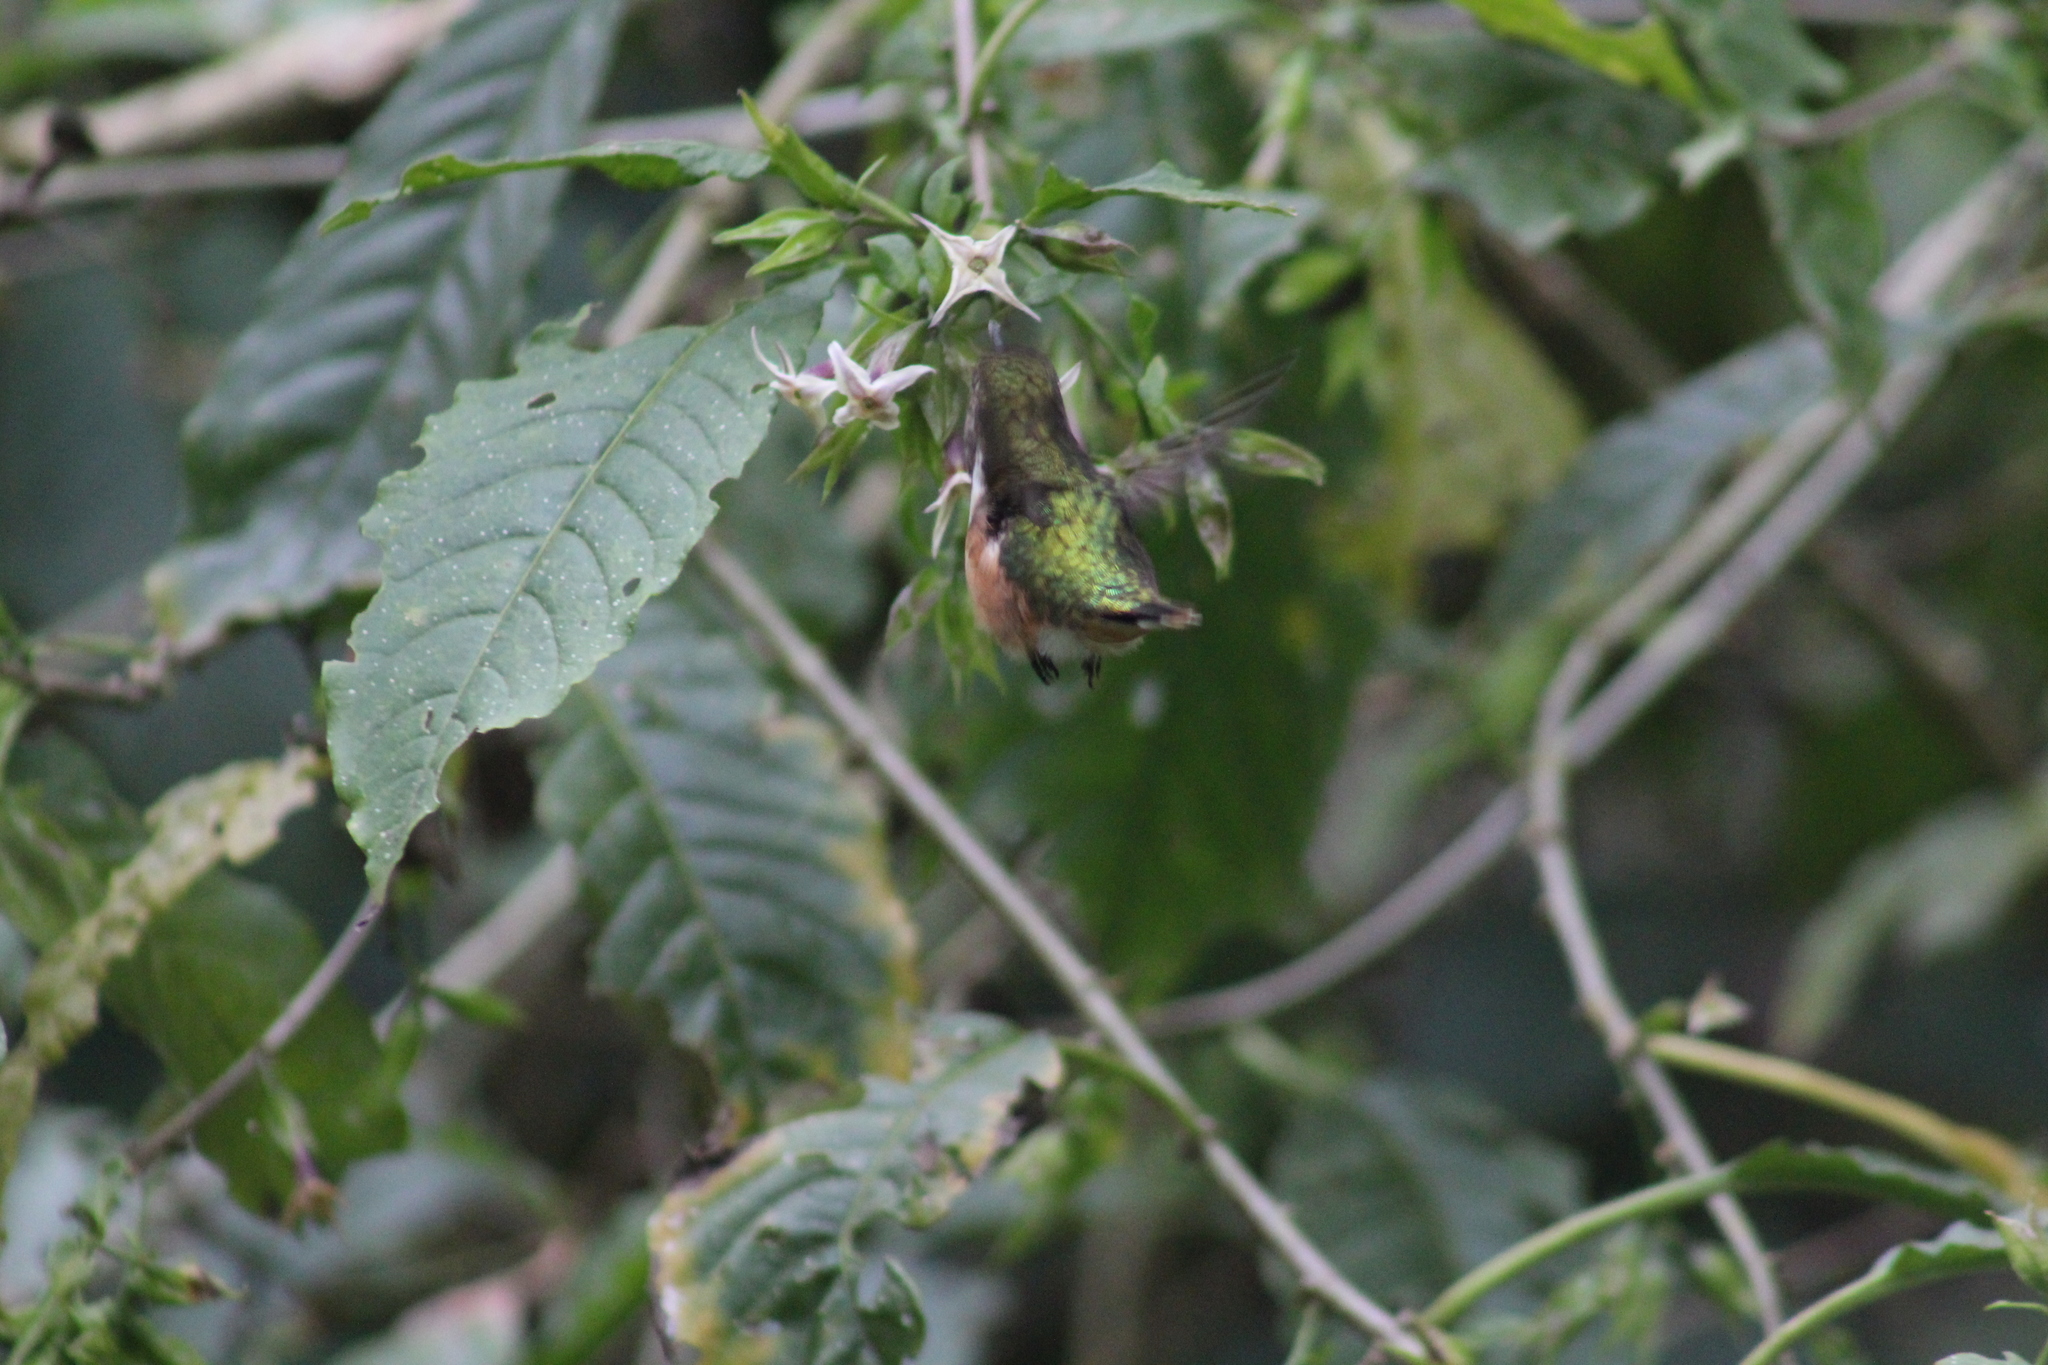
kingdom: Animalia
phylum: Chordata
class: Aves
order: Apodiformes
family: Trochilidae
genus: Selasphorus
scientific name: Selasphorus heloisa
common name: Bumblebee hummingbird
